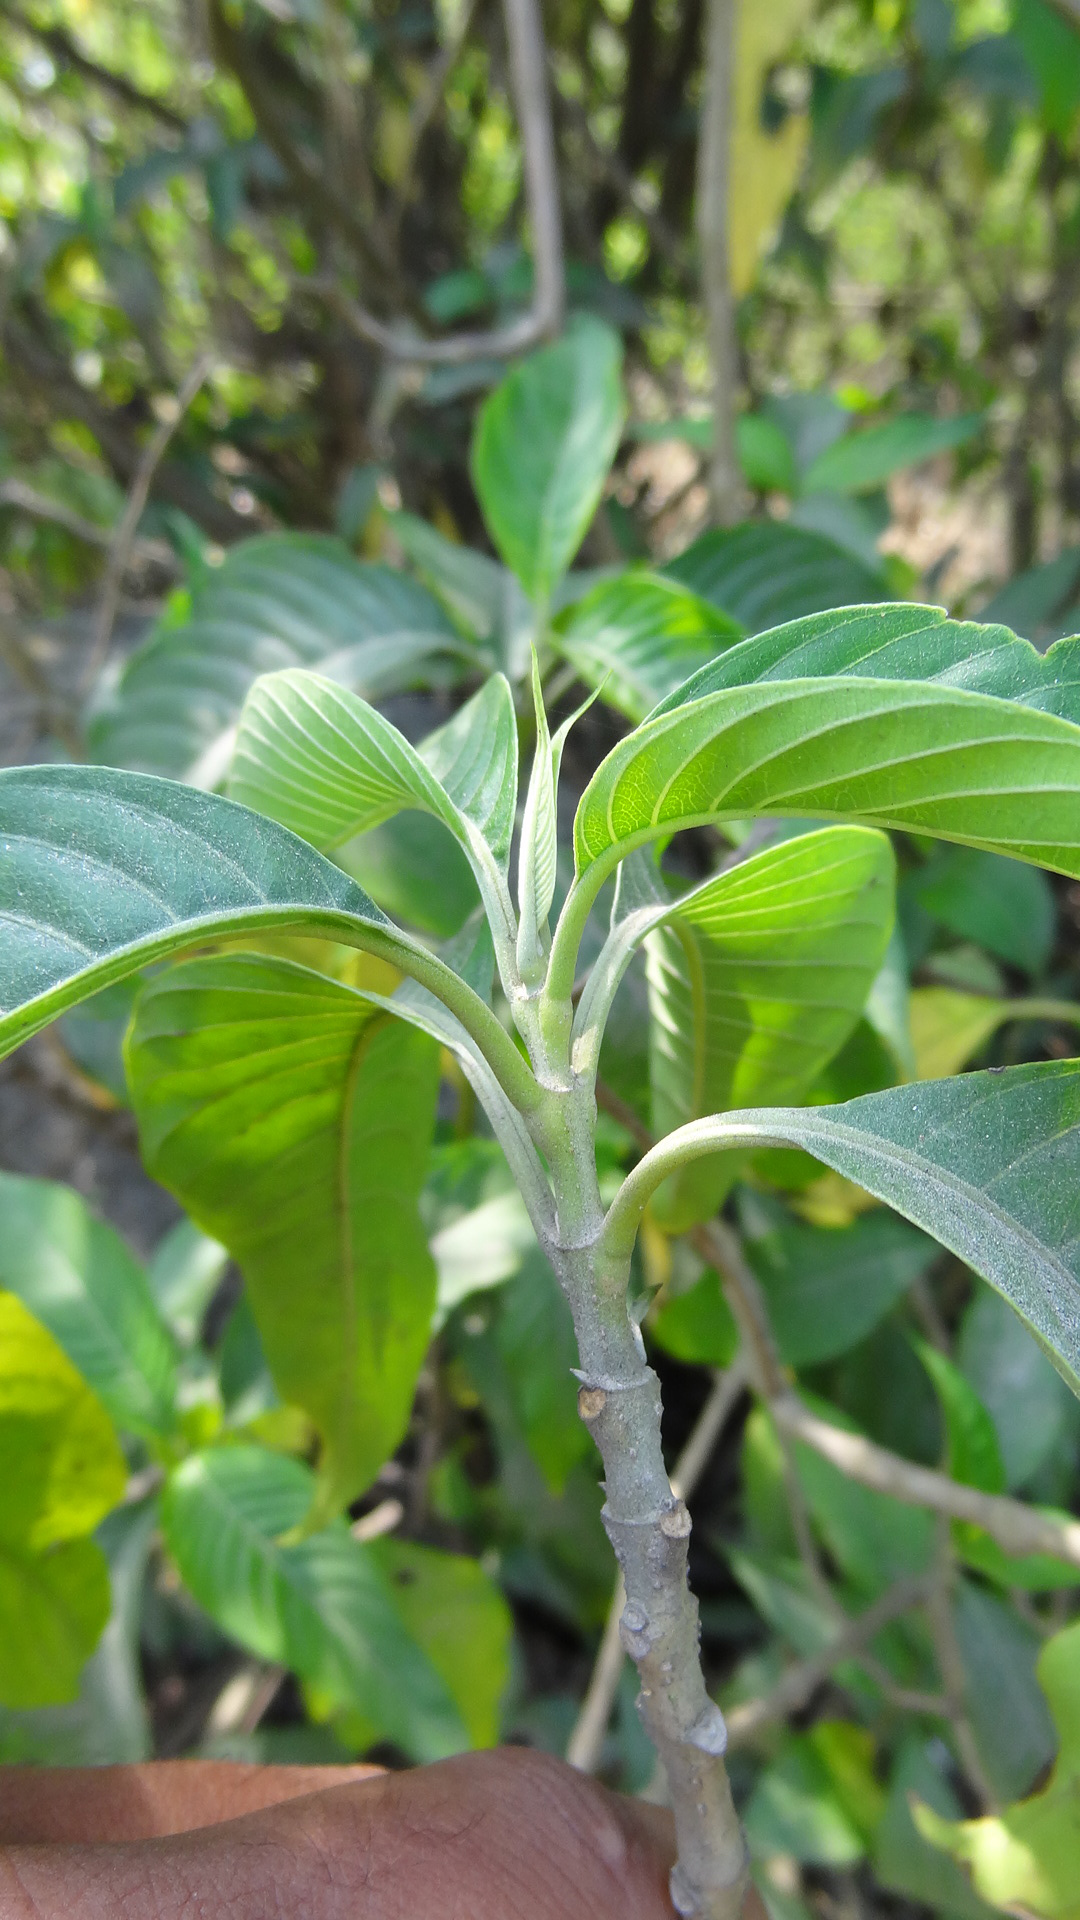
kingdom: Plantae
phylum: Tracheophyta
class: Magnoliopsida
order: Lamiales
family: Acanthaceae
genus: Justicia
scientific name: Justicia adhatoda
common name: Malabar nut
